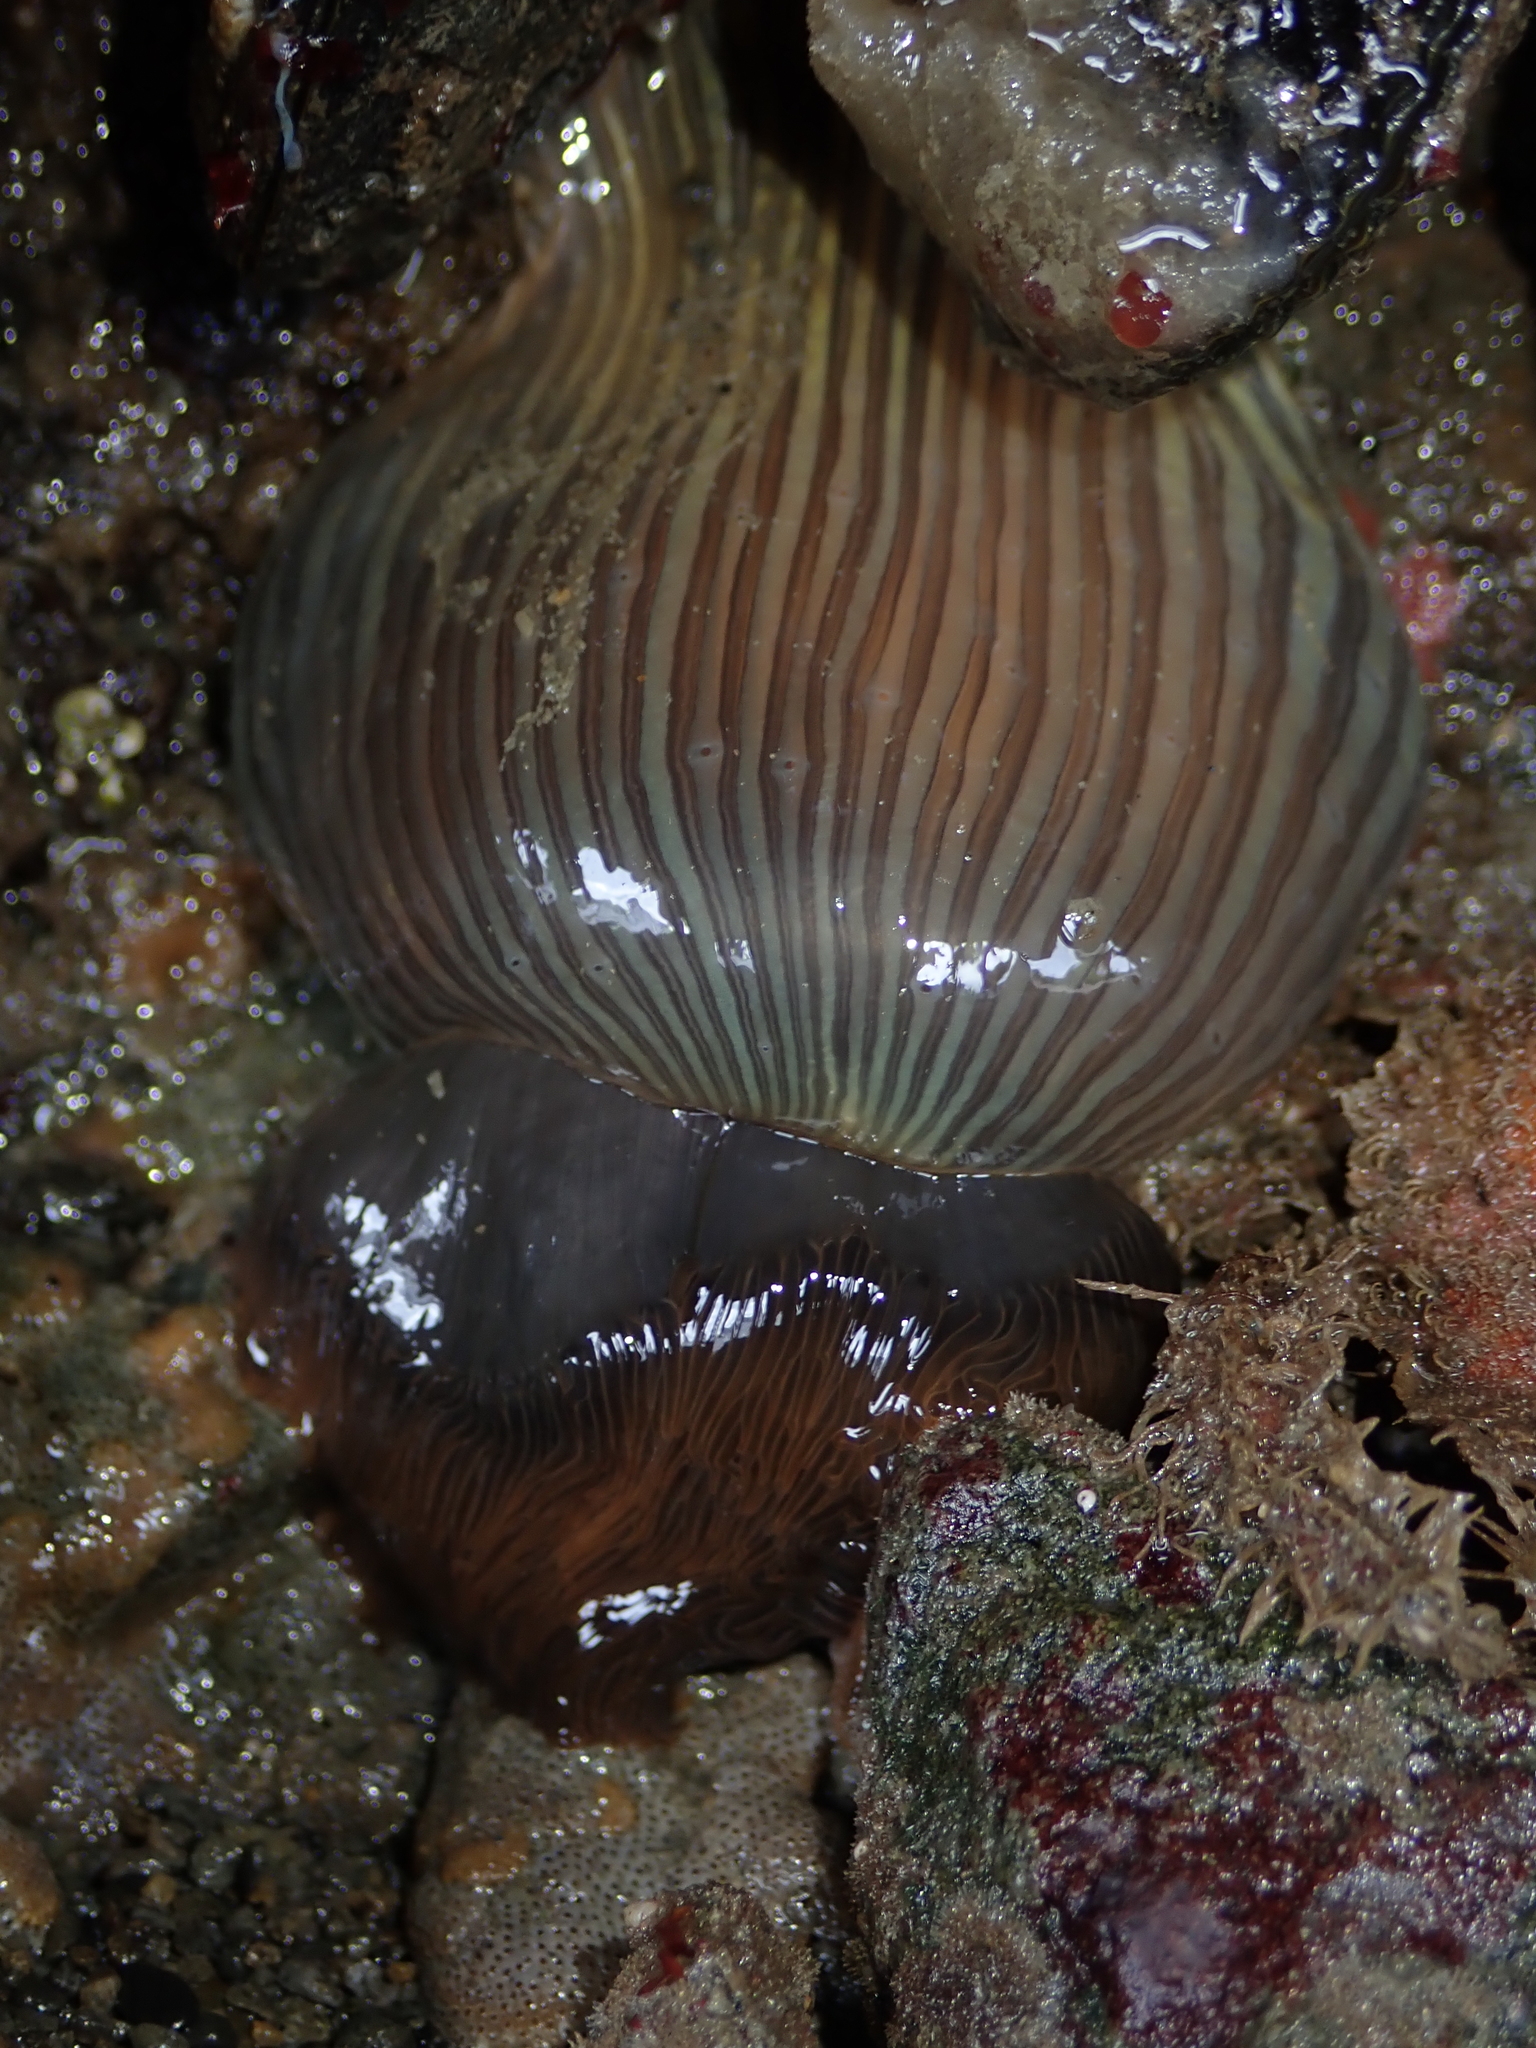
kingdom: Animalia
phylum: Cnidaria
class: Anthozoa
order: Actiniaria
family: Diadumenidae
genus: Diadumene
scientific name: Diadumene neozelanica
